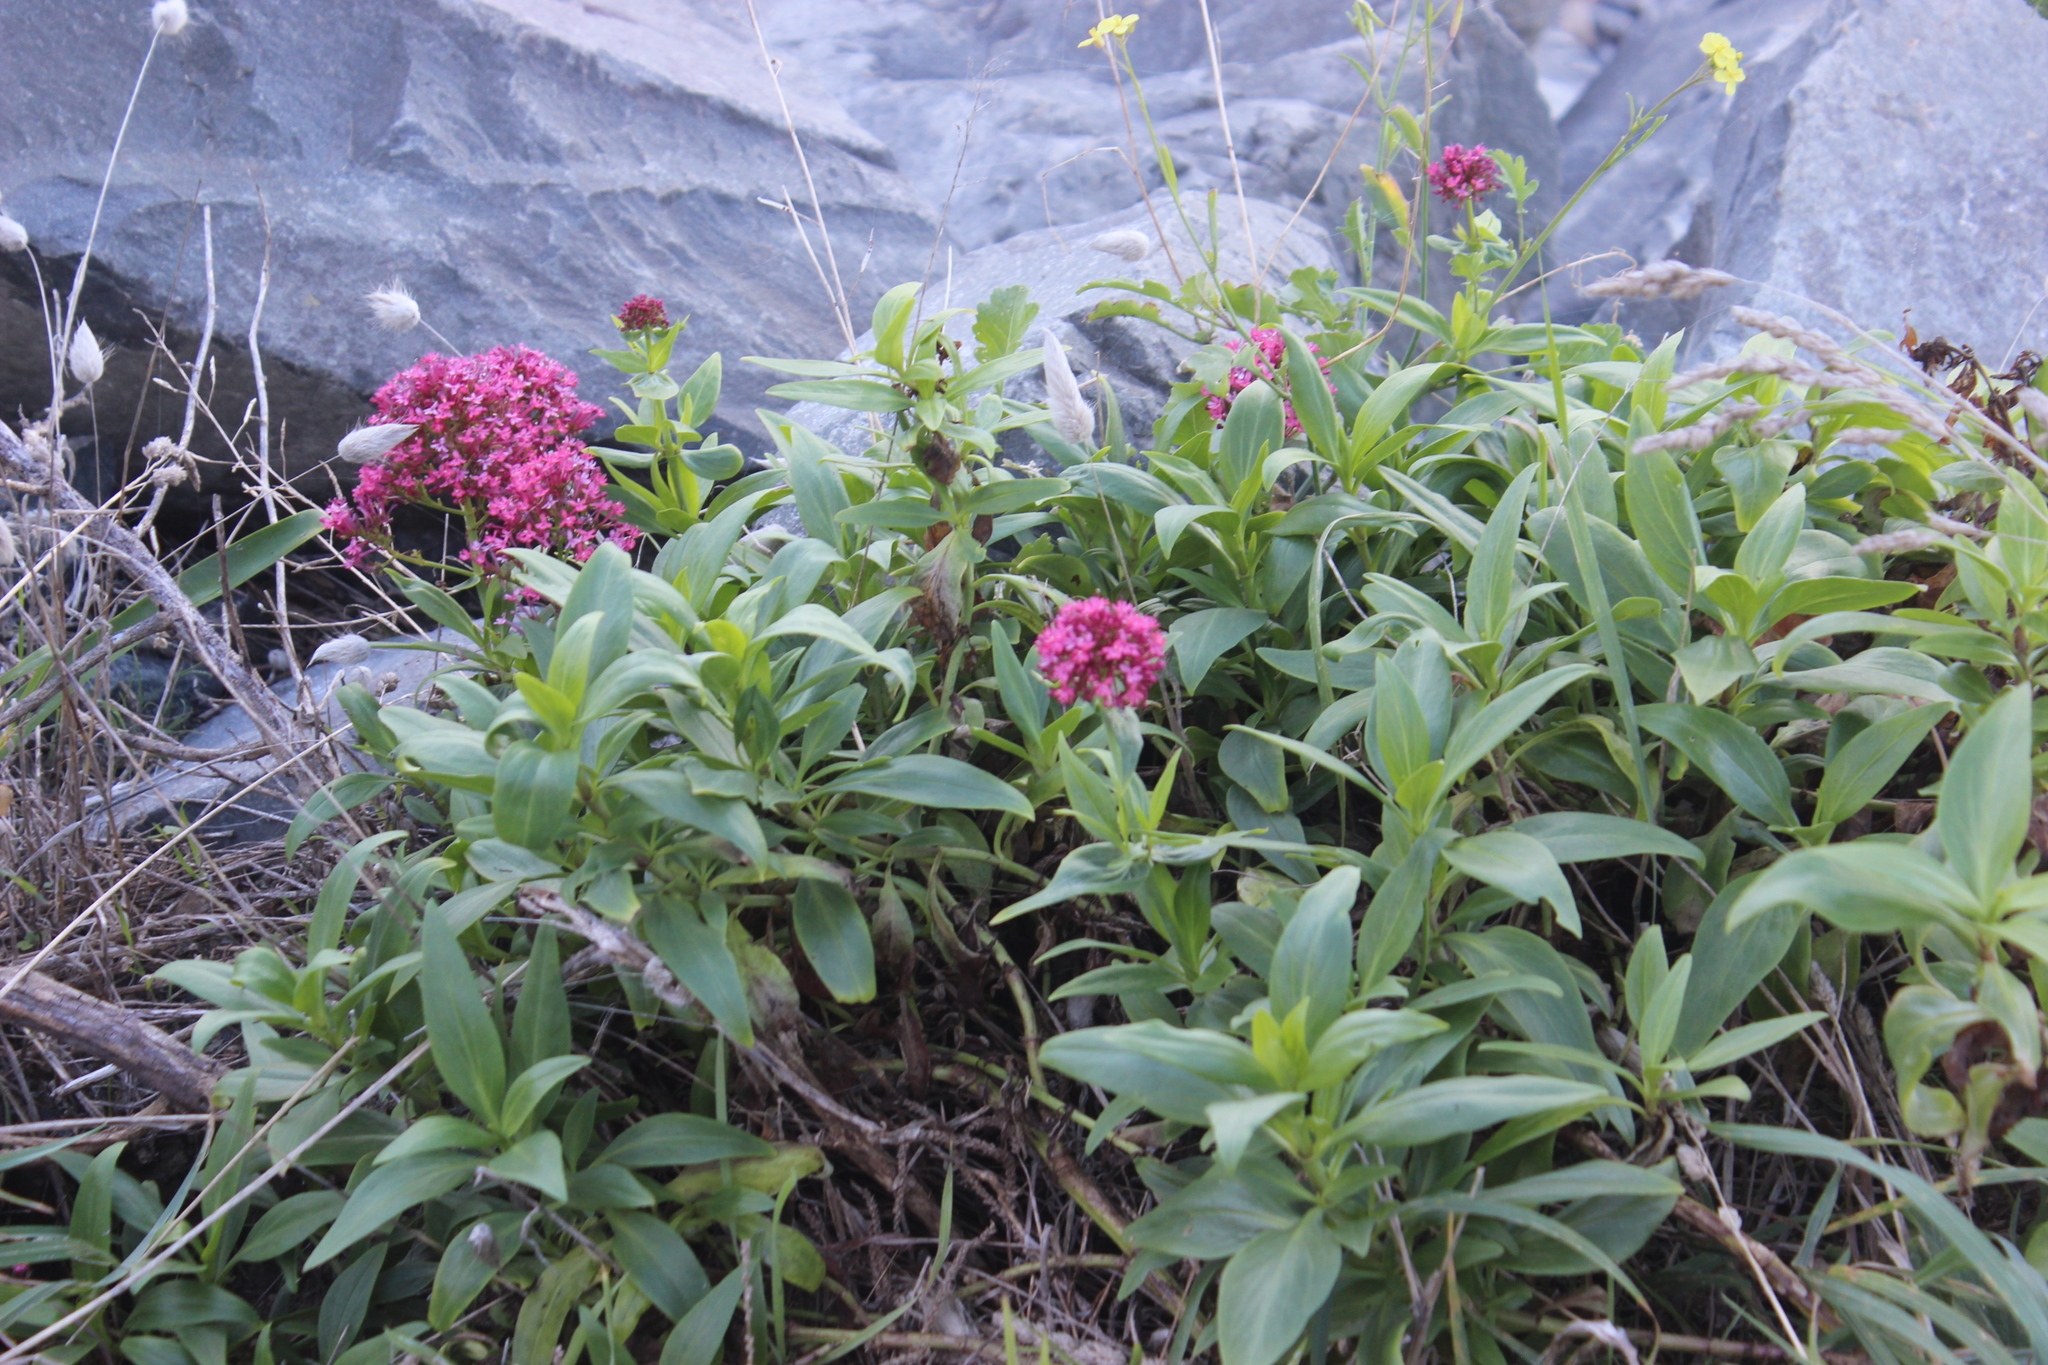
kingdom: Plantae
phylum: Tracheophyta
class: Magnoliopsida
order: Dipsacales
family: Caprifoliaceae
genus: Centranthus
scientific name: Centranthus ruber
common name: Red valerian
